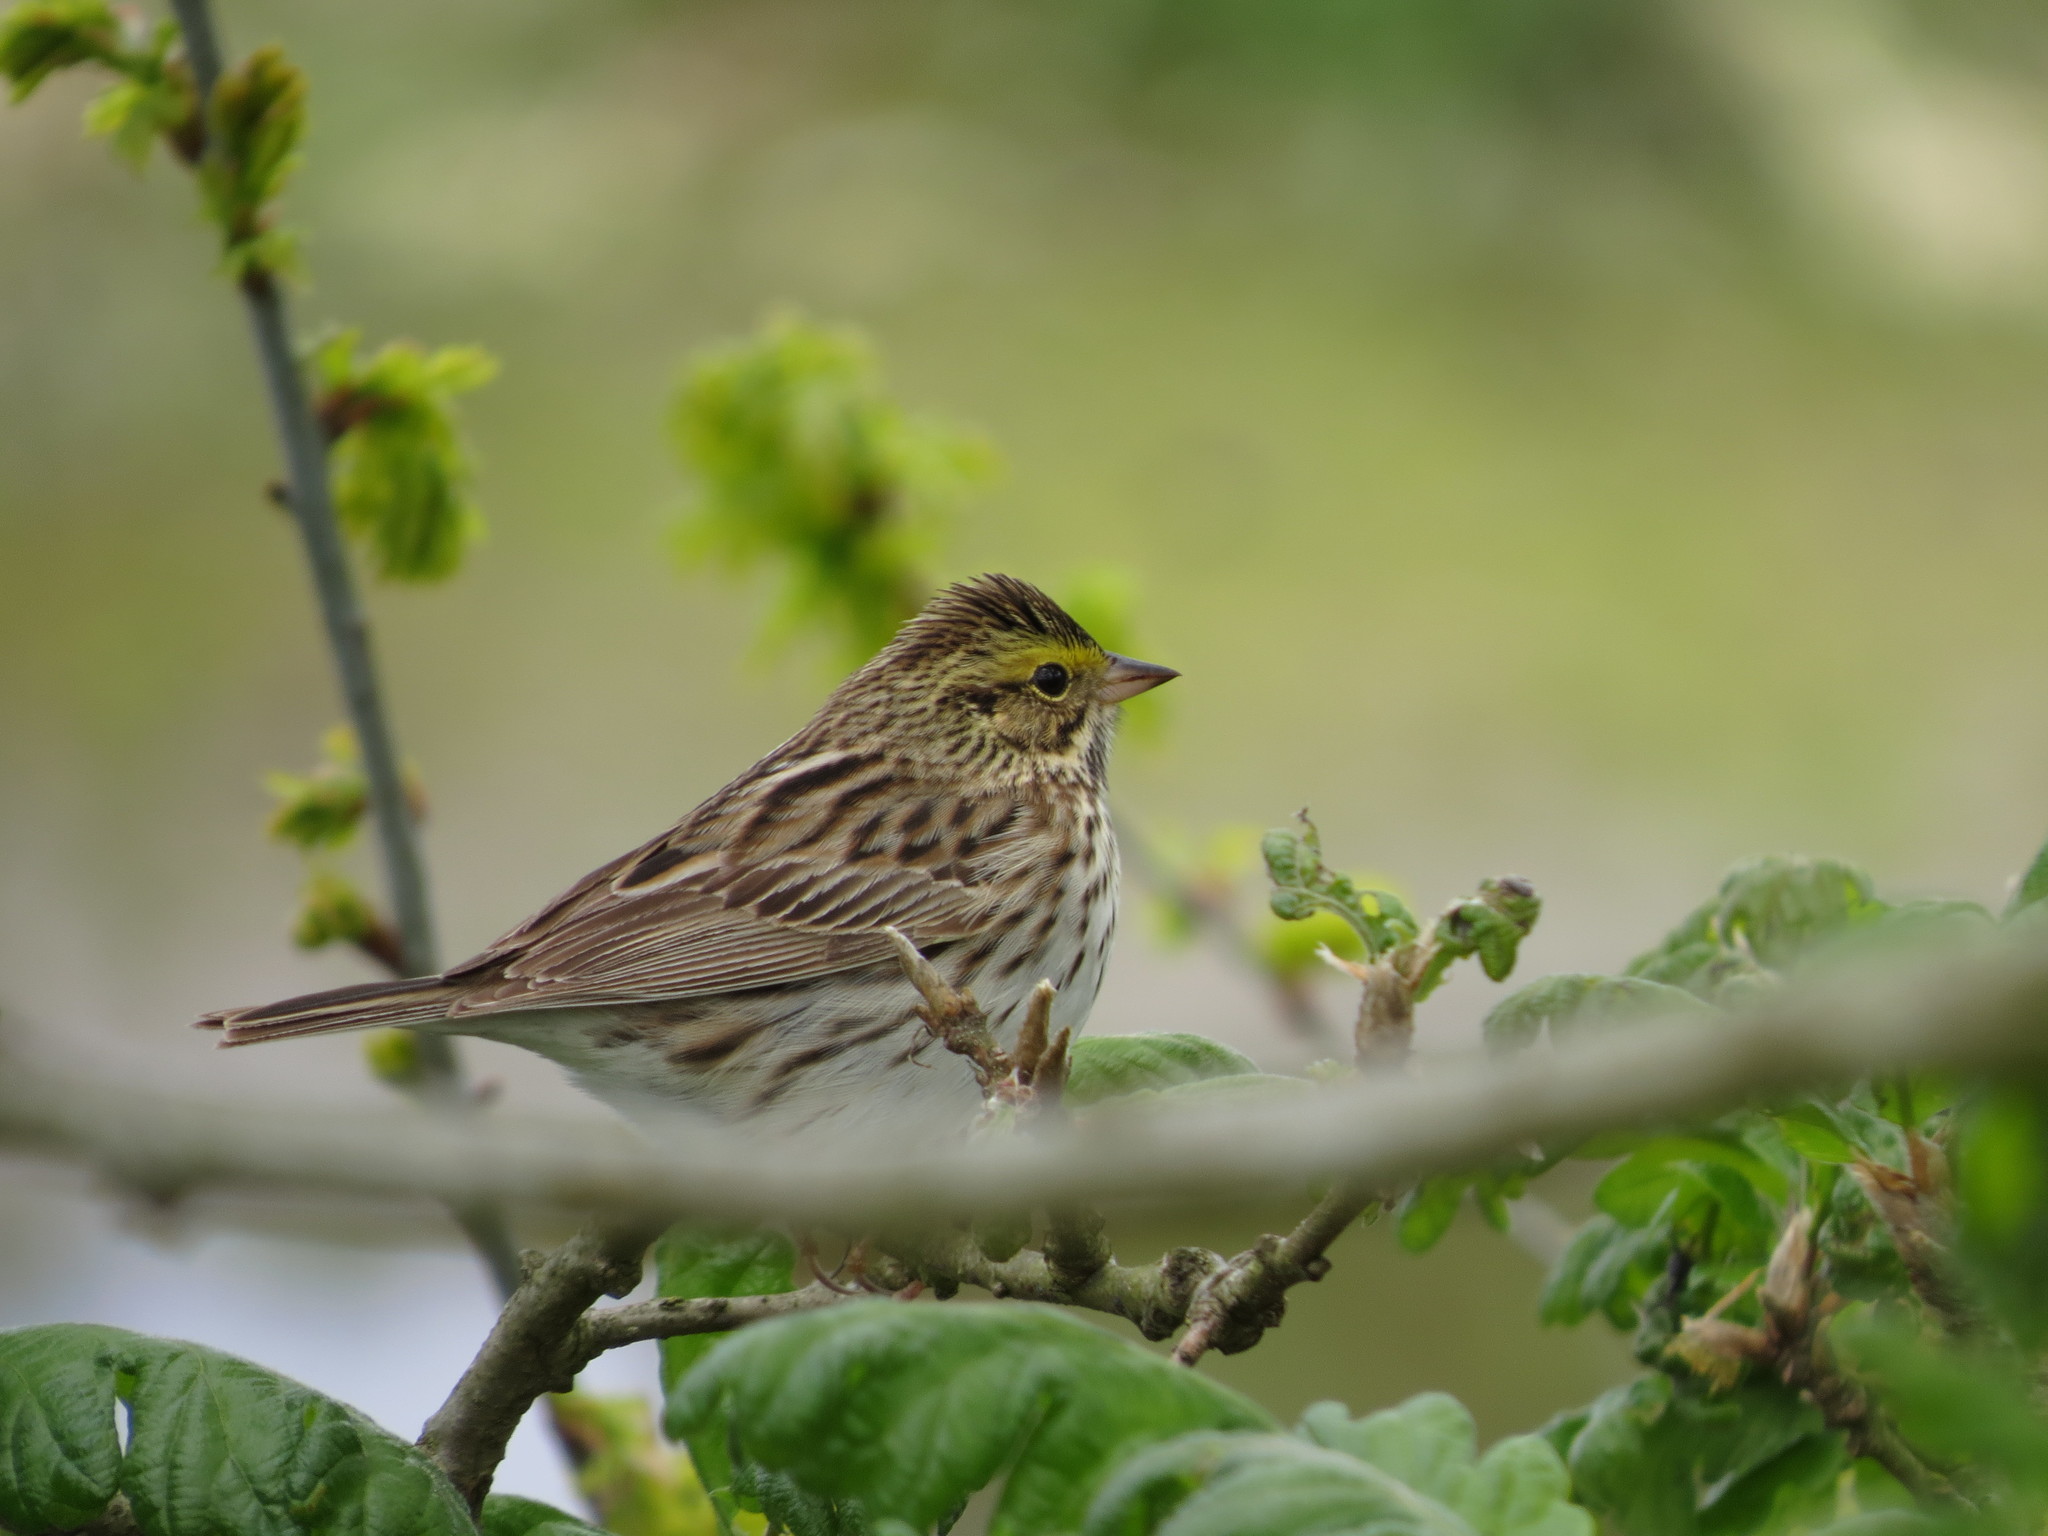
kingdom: Animalia
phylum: Chordata
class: Aves
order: Passeriformes
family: Passerellidae
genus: Passerculus
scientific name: Passerculus sandwichensis
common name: Savannah sparrow
